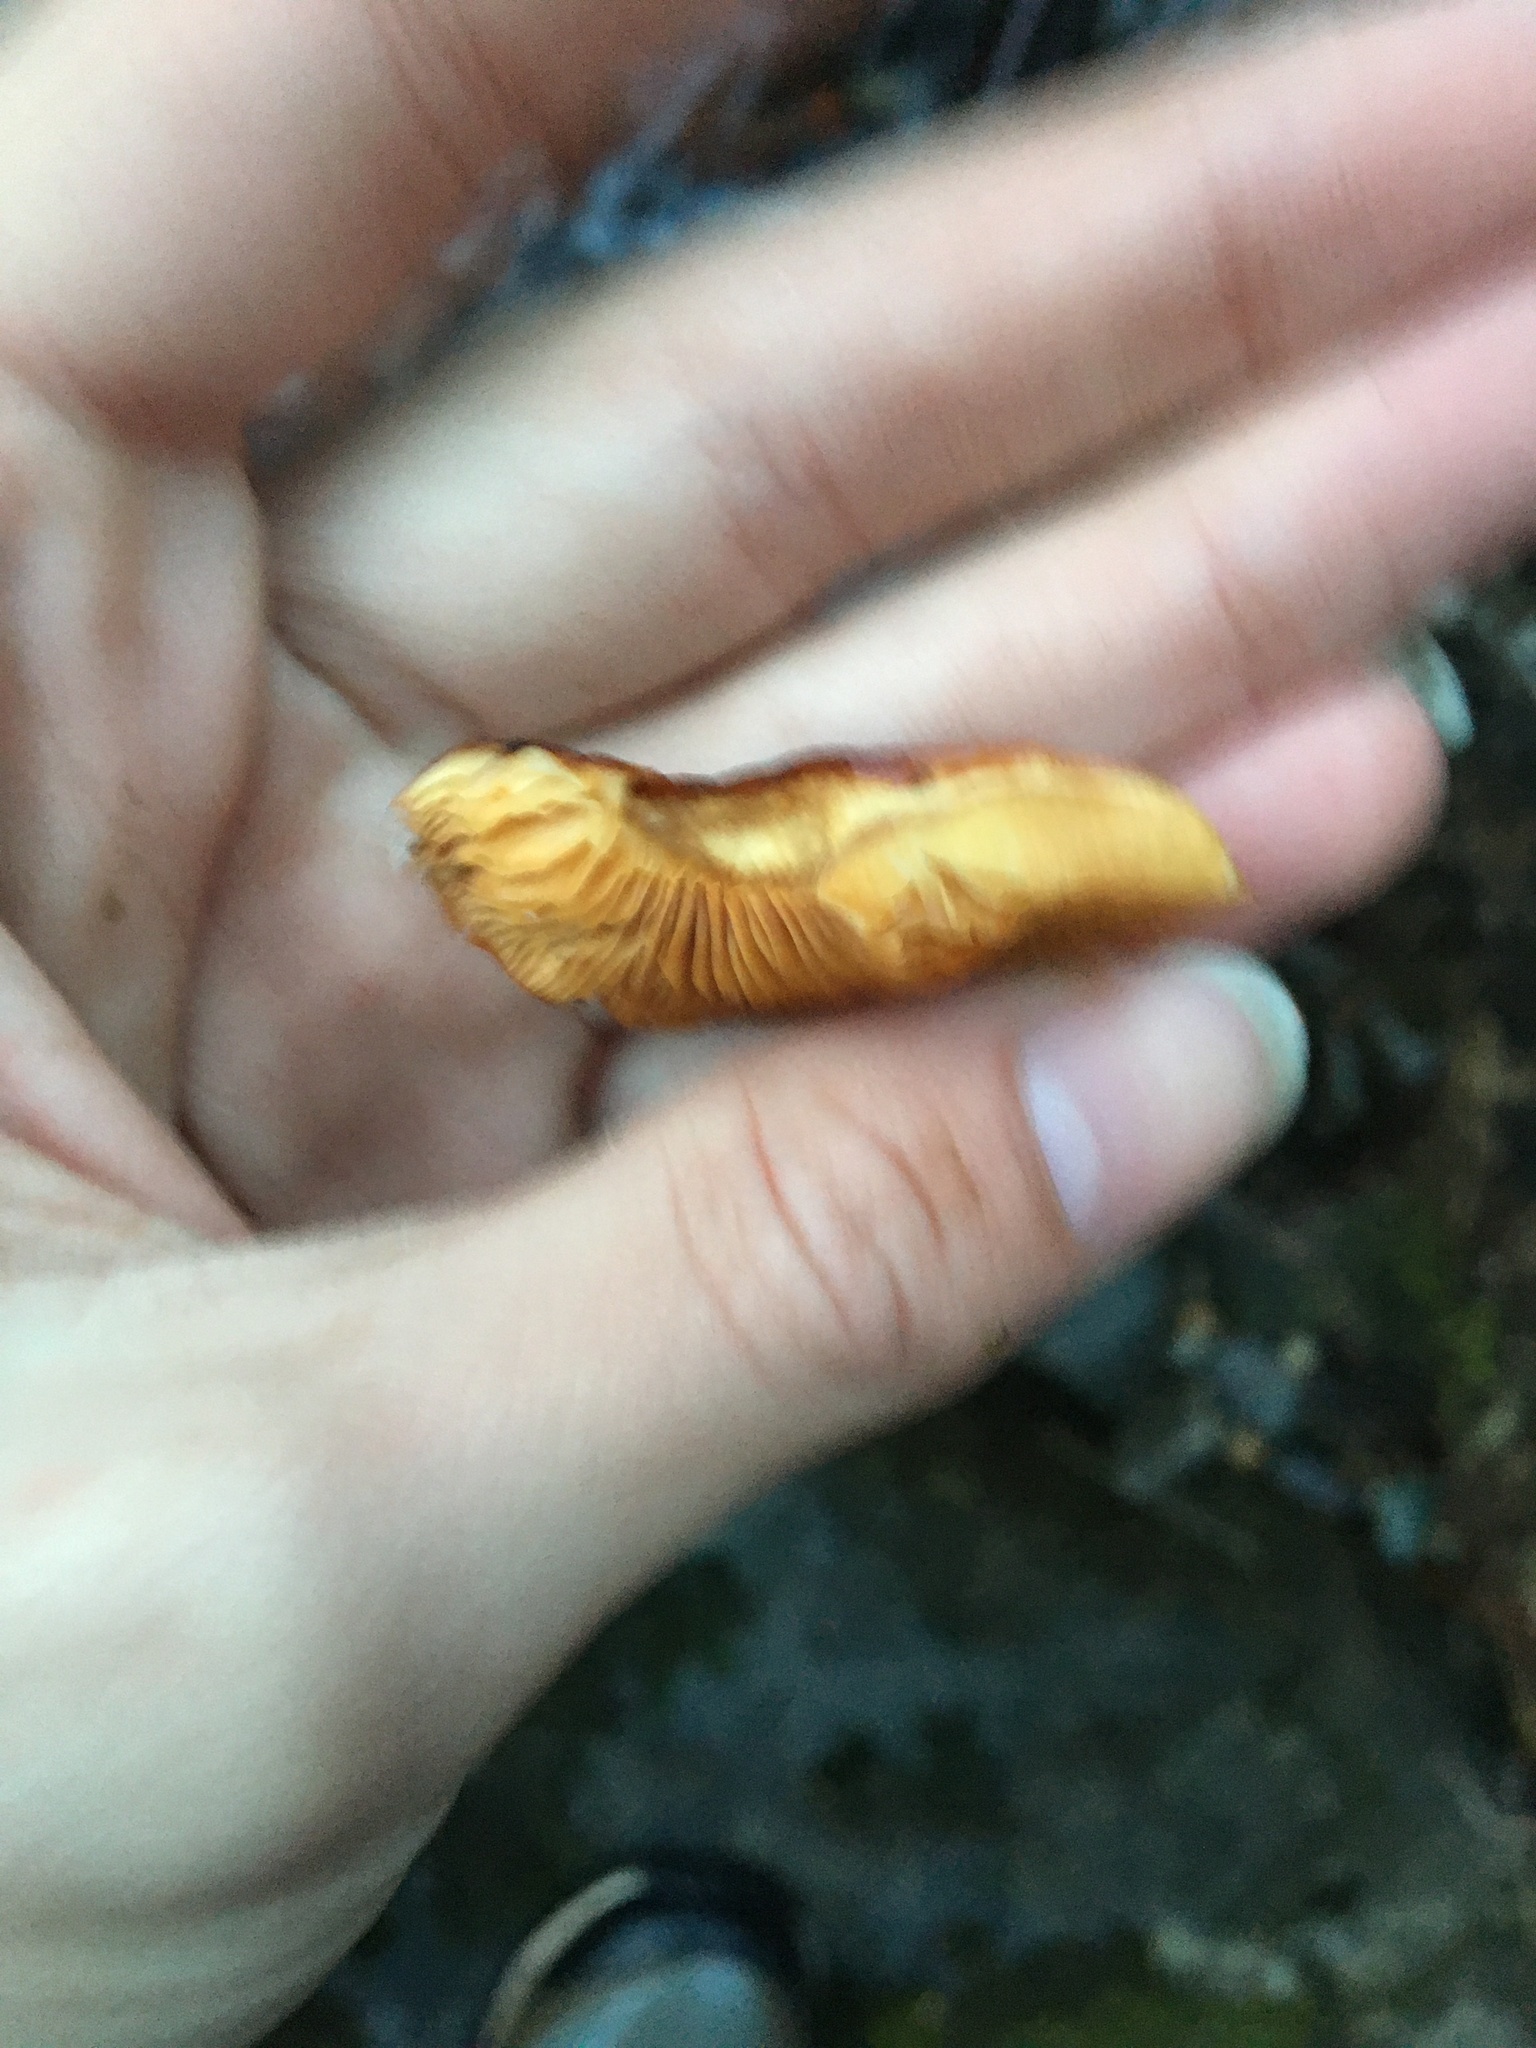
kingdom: Fungi
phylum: Basidiomycota
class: Agaricomycetes
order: Agaricales
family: Physalacriaceae
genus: Flammulina
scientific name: Flammulina velutipes
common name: Velvet shank
